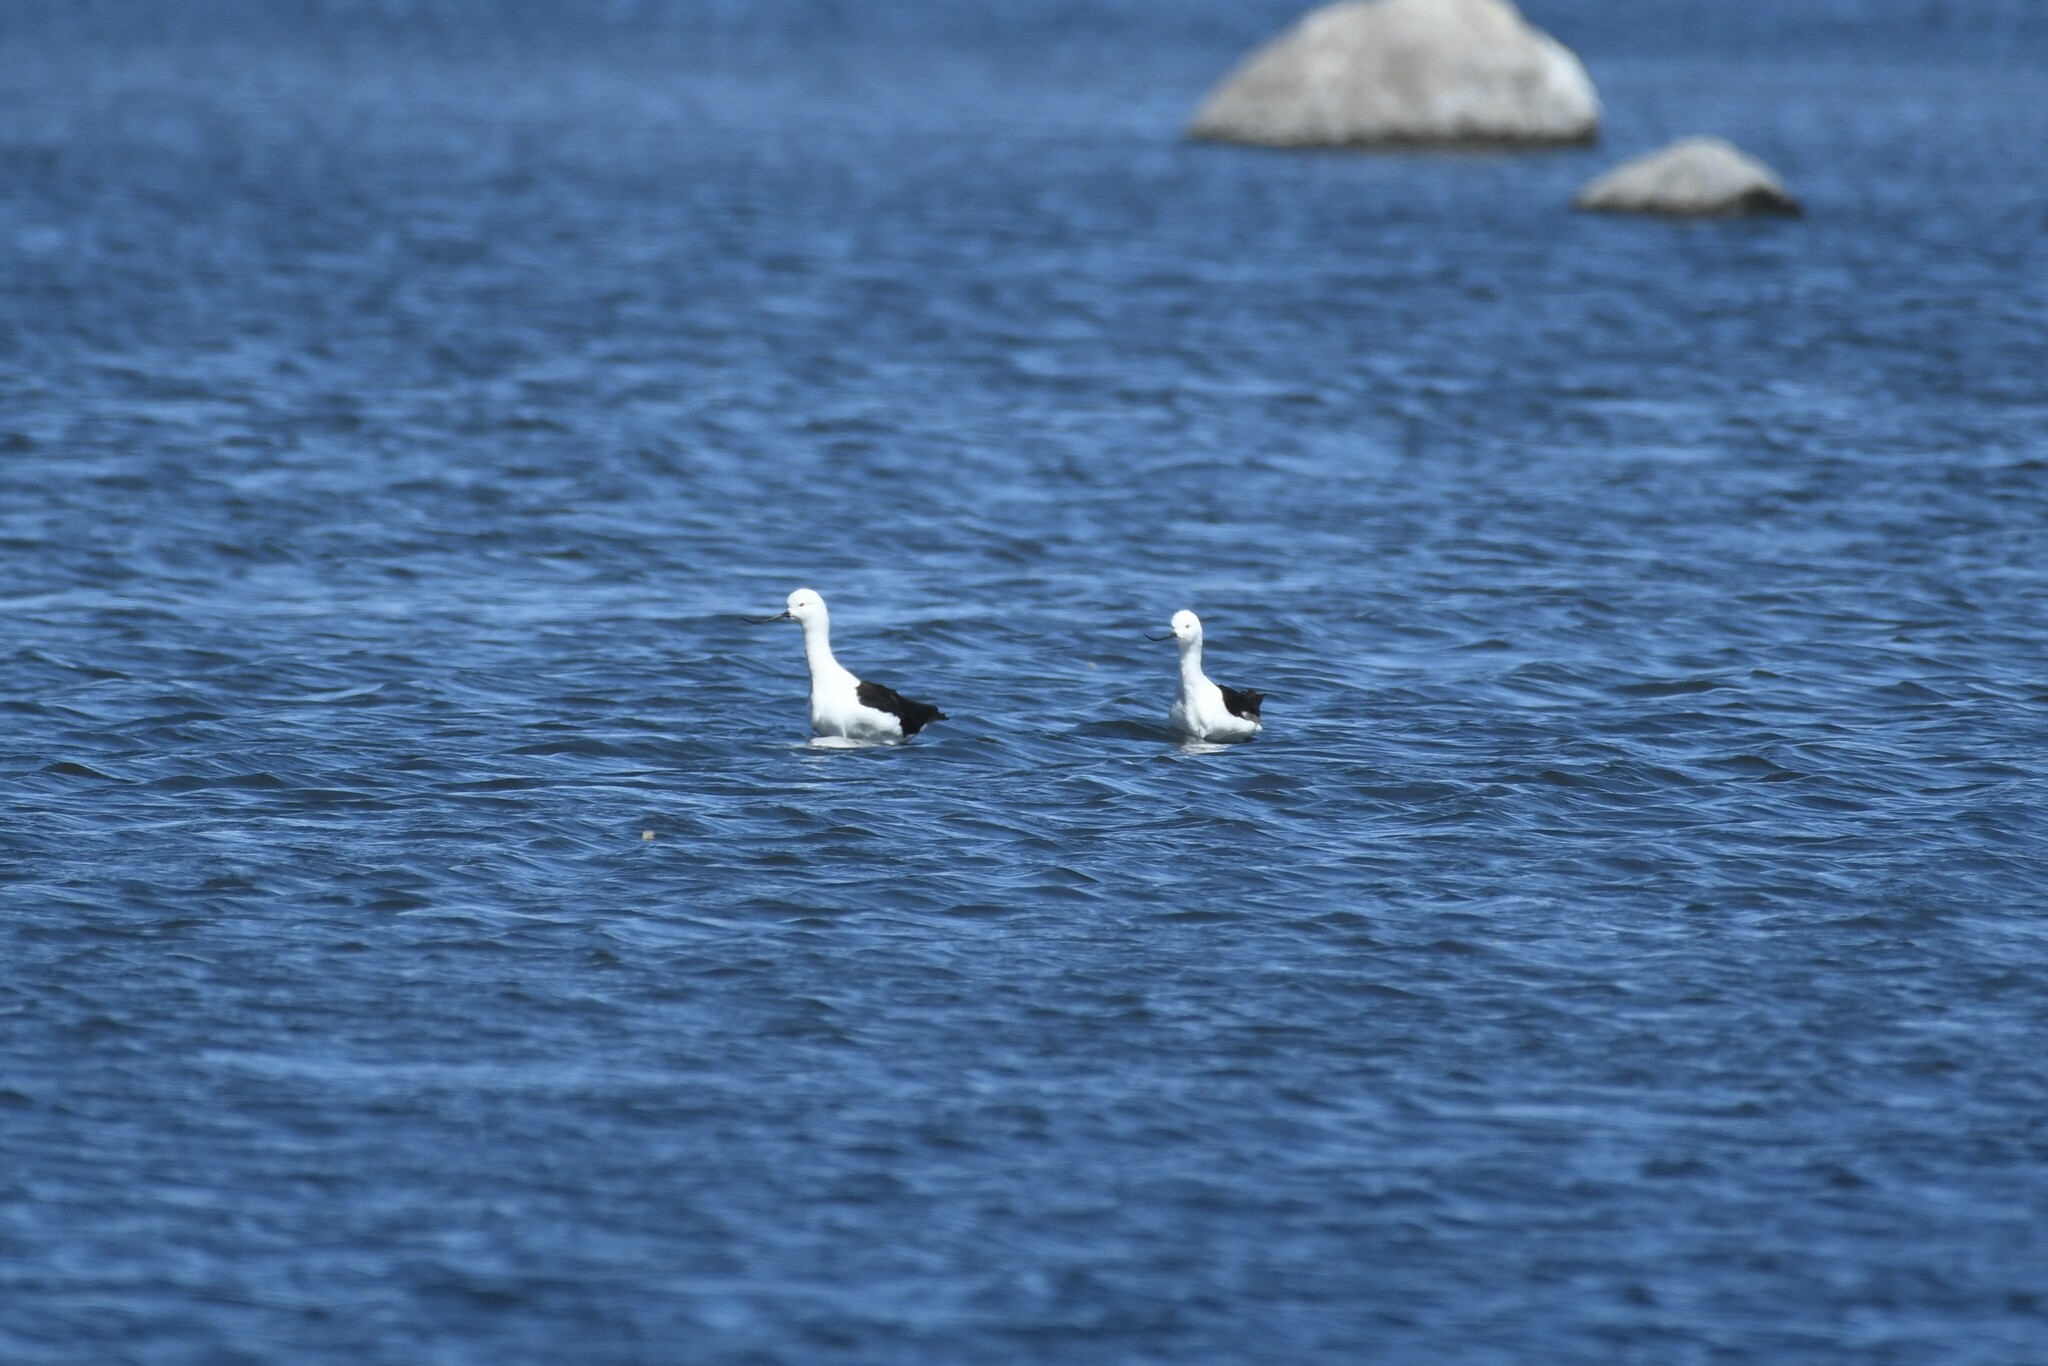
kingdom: Animalia
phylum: Chordata
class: Aves
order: Charadriiformes
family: Recurvirostridae
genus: Recurvirostra
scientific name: Recurvirostra andina
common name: Andean avocet
